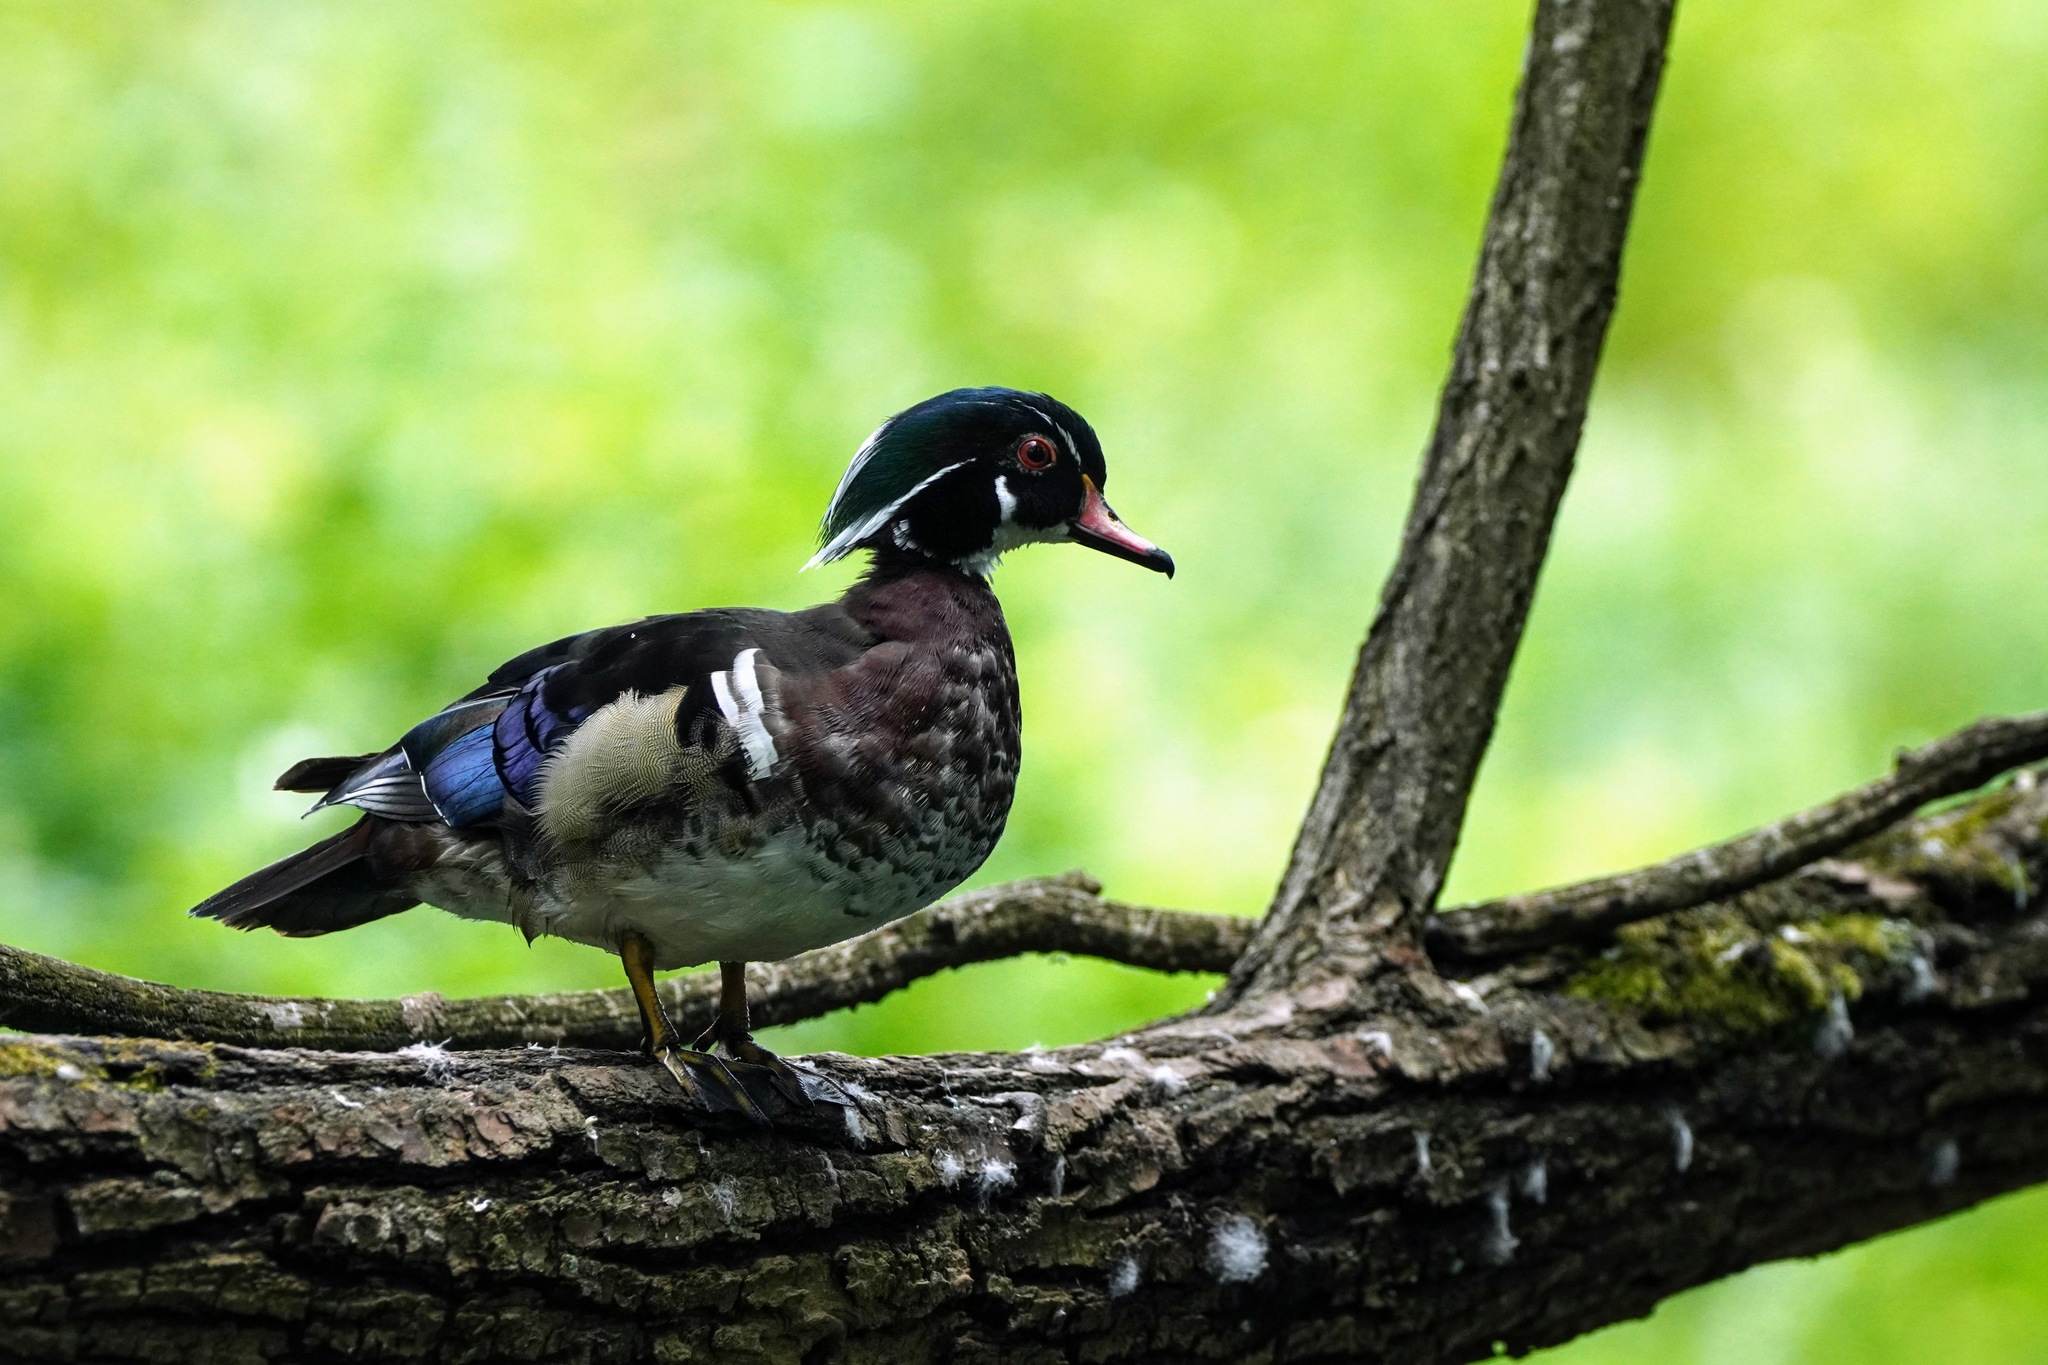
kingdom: Animalia
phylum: Chordata
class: Aves
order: Anseriformes
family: Anatidae
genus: Aix
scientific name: Aix sponsa
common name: Wood duck
